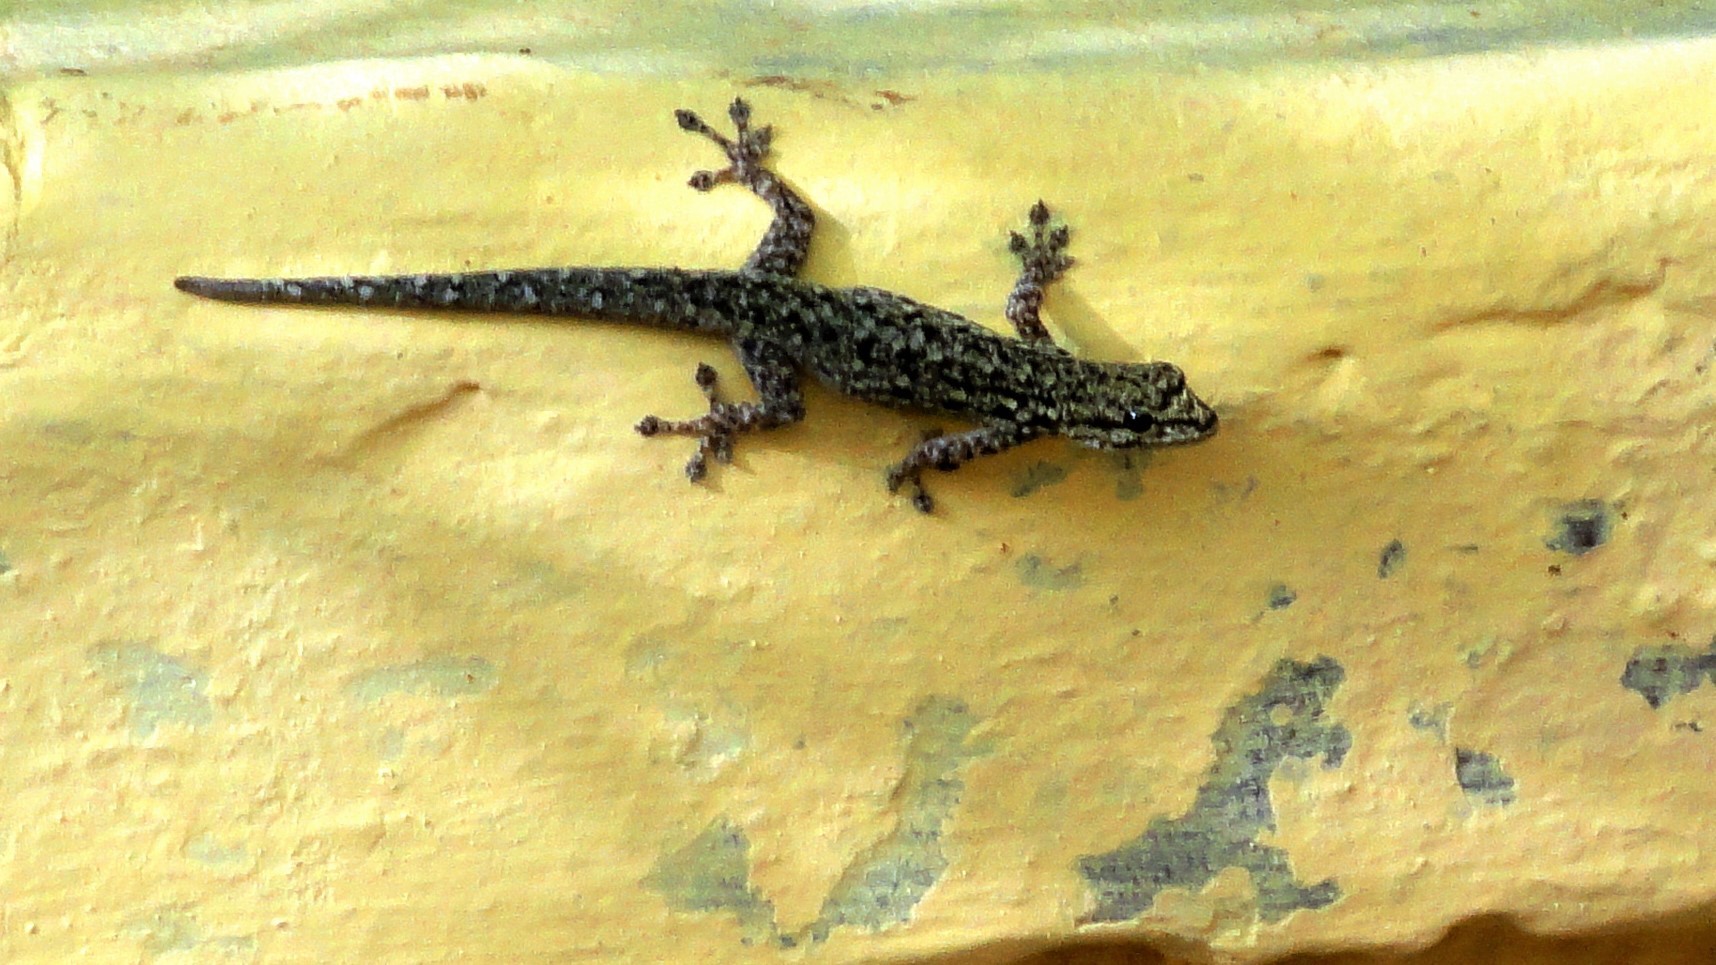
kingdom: Animalia
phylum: Chordata
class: Squamata
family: Gekkonidae
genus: Lygodactylus
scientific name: Lygodactylus gutturalis
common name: Chevron-throated dwarf gecko
